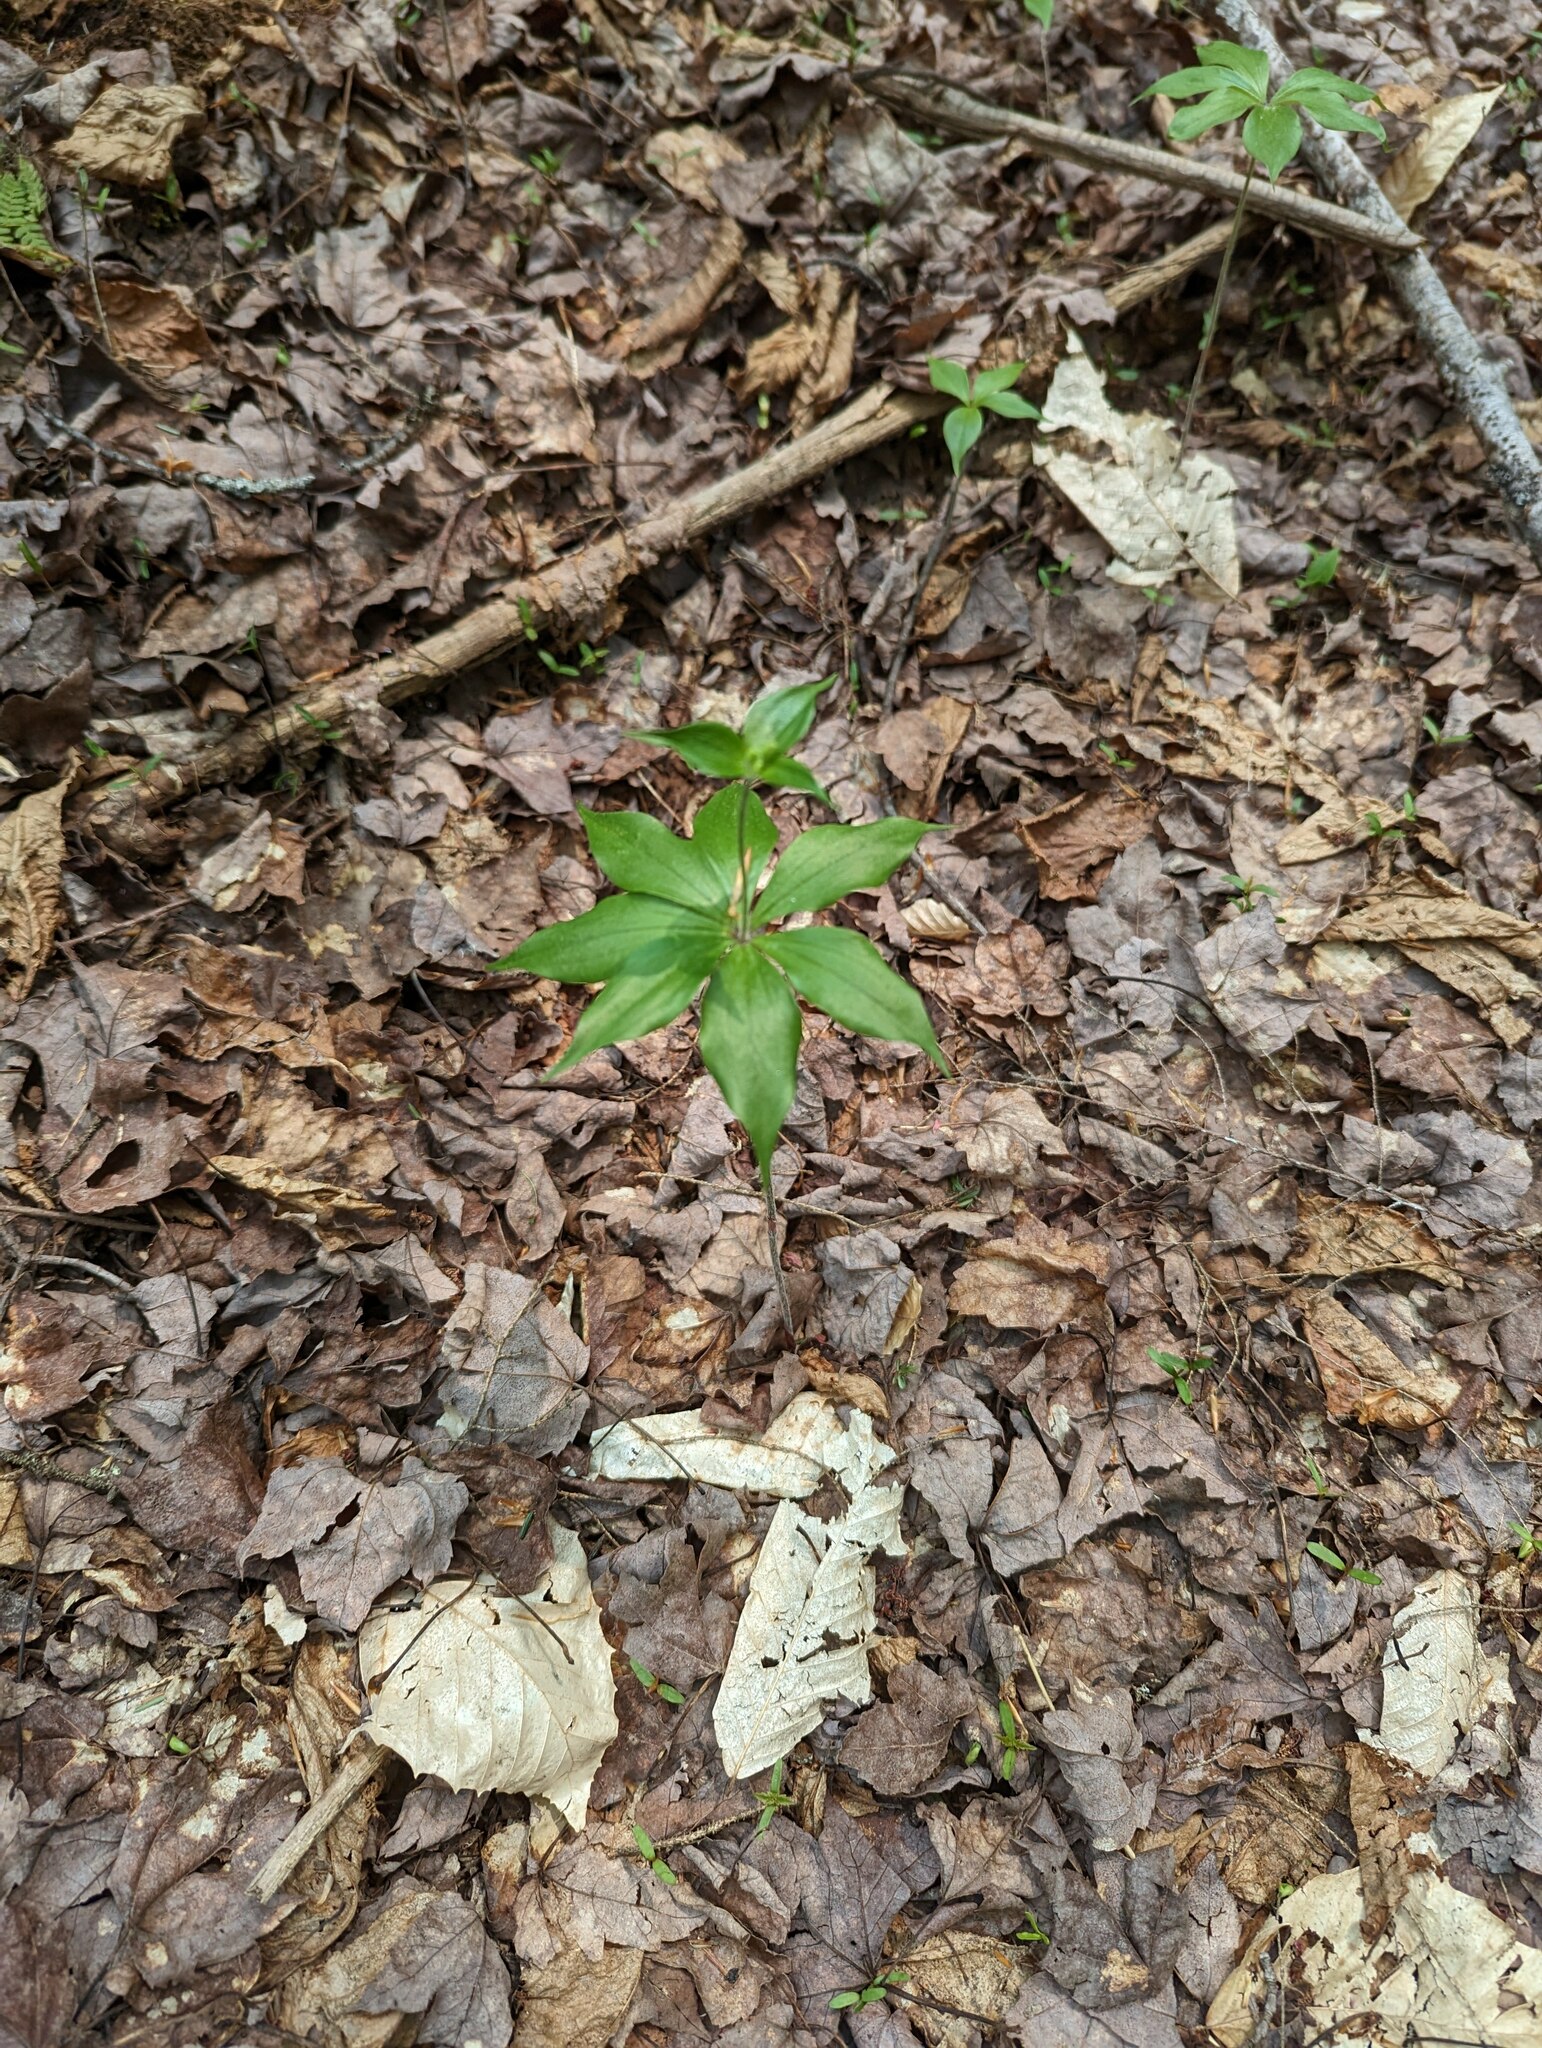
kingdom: Plantae
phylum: Tracheophyta
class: Liliopsida
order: Liliales
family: Liliaceae
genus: Medeola
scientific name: Medeola virginiana
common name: Indian cucumber-root
